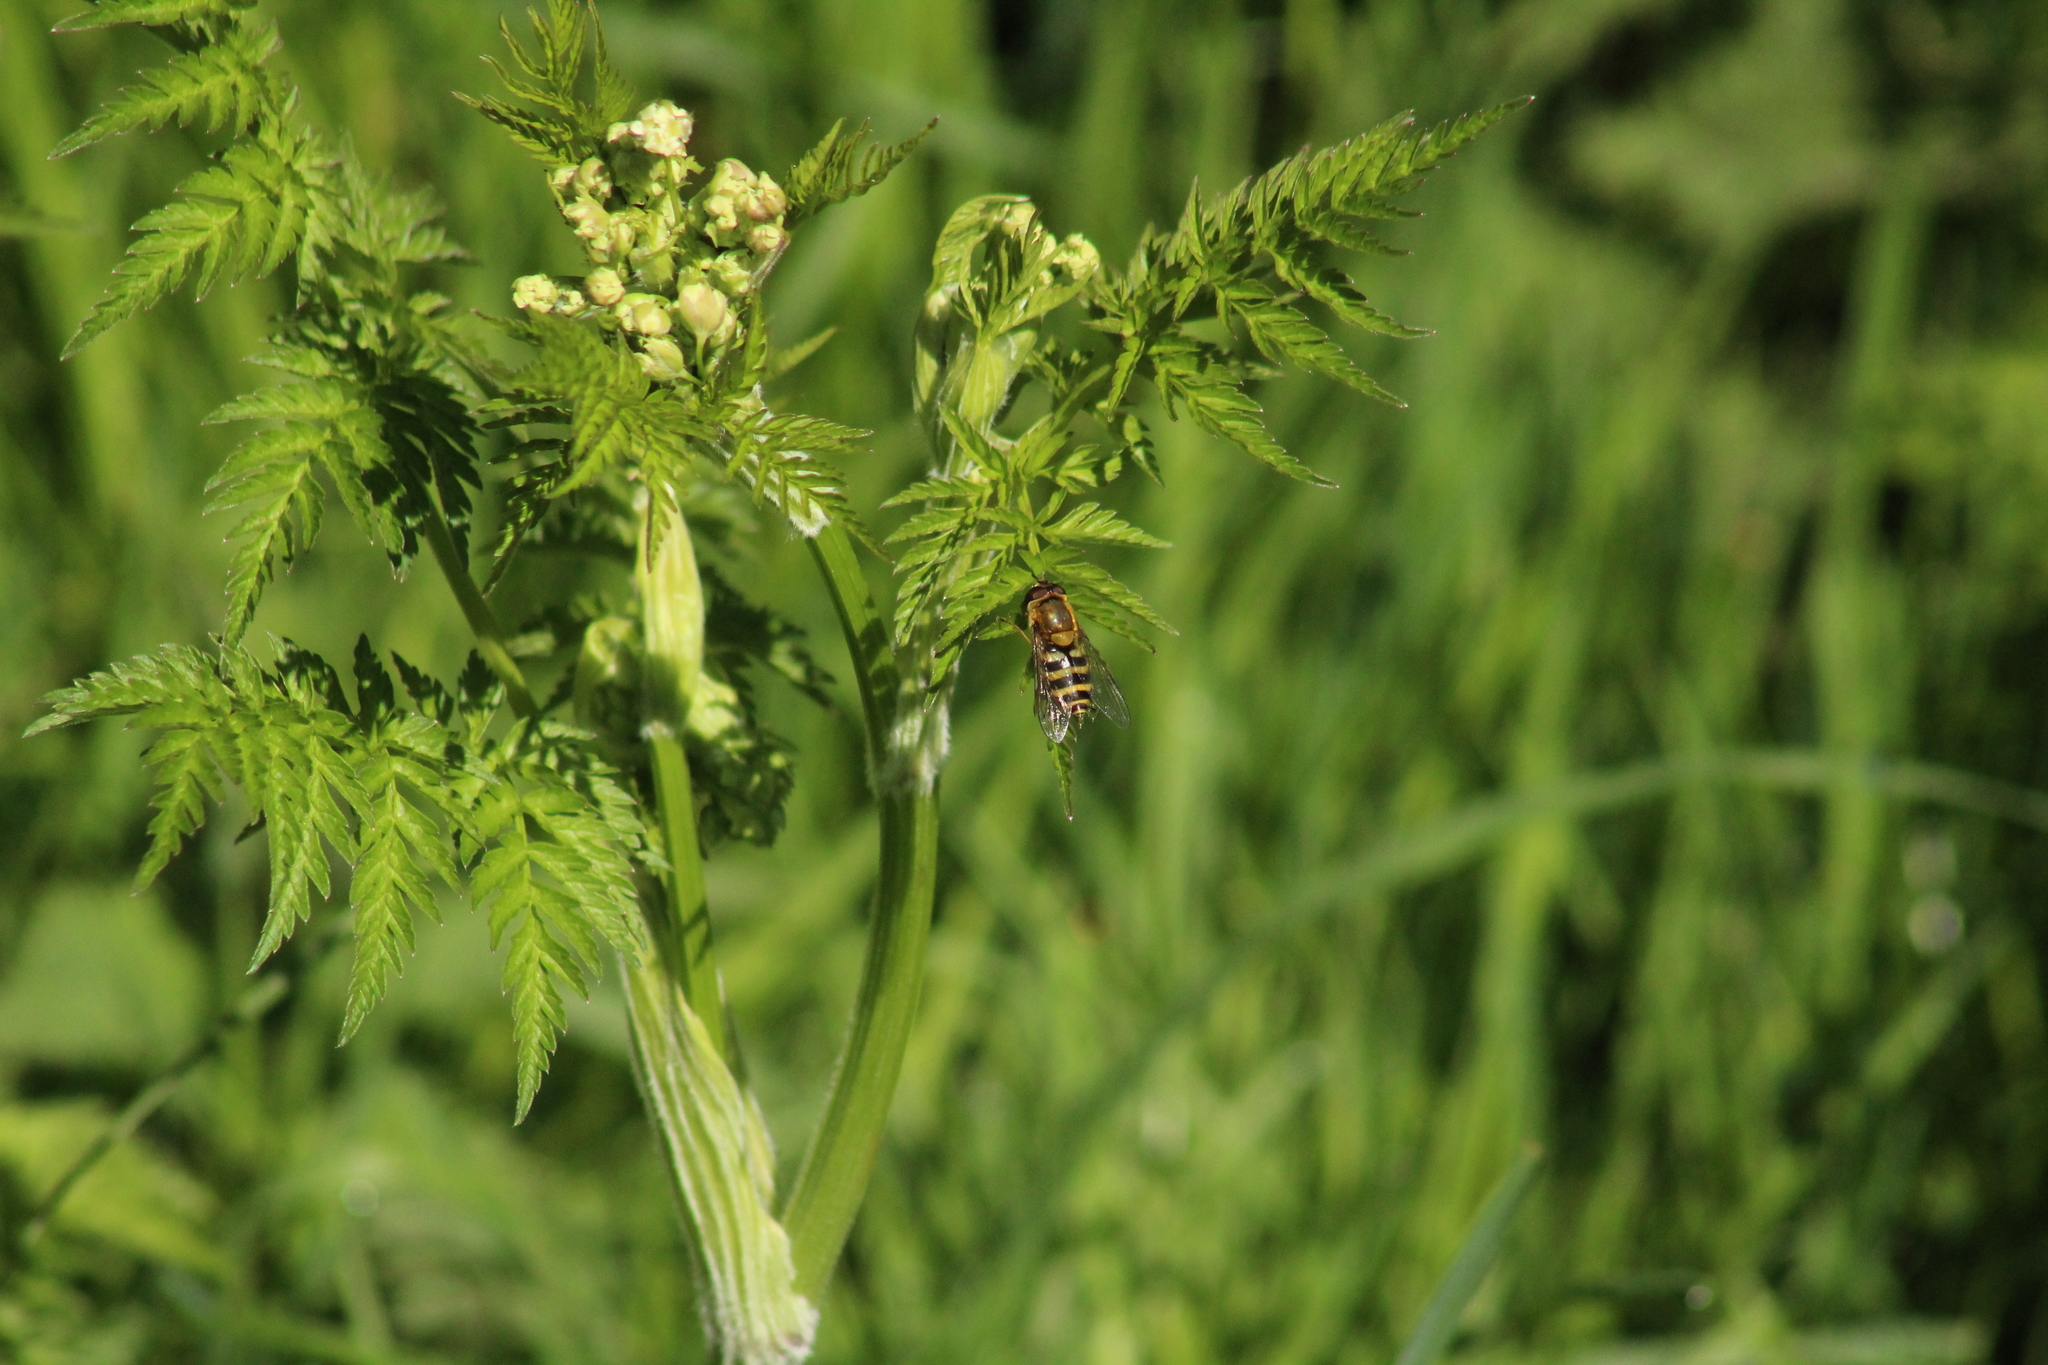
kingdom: Animalia
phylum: Arthropoda
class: Insecta
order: Diptera
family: Syrphidae
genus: Syrphus
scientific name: Syrphus
